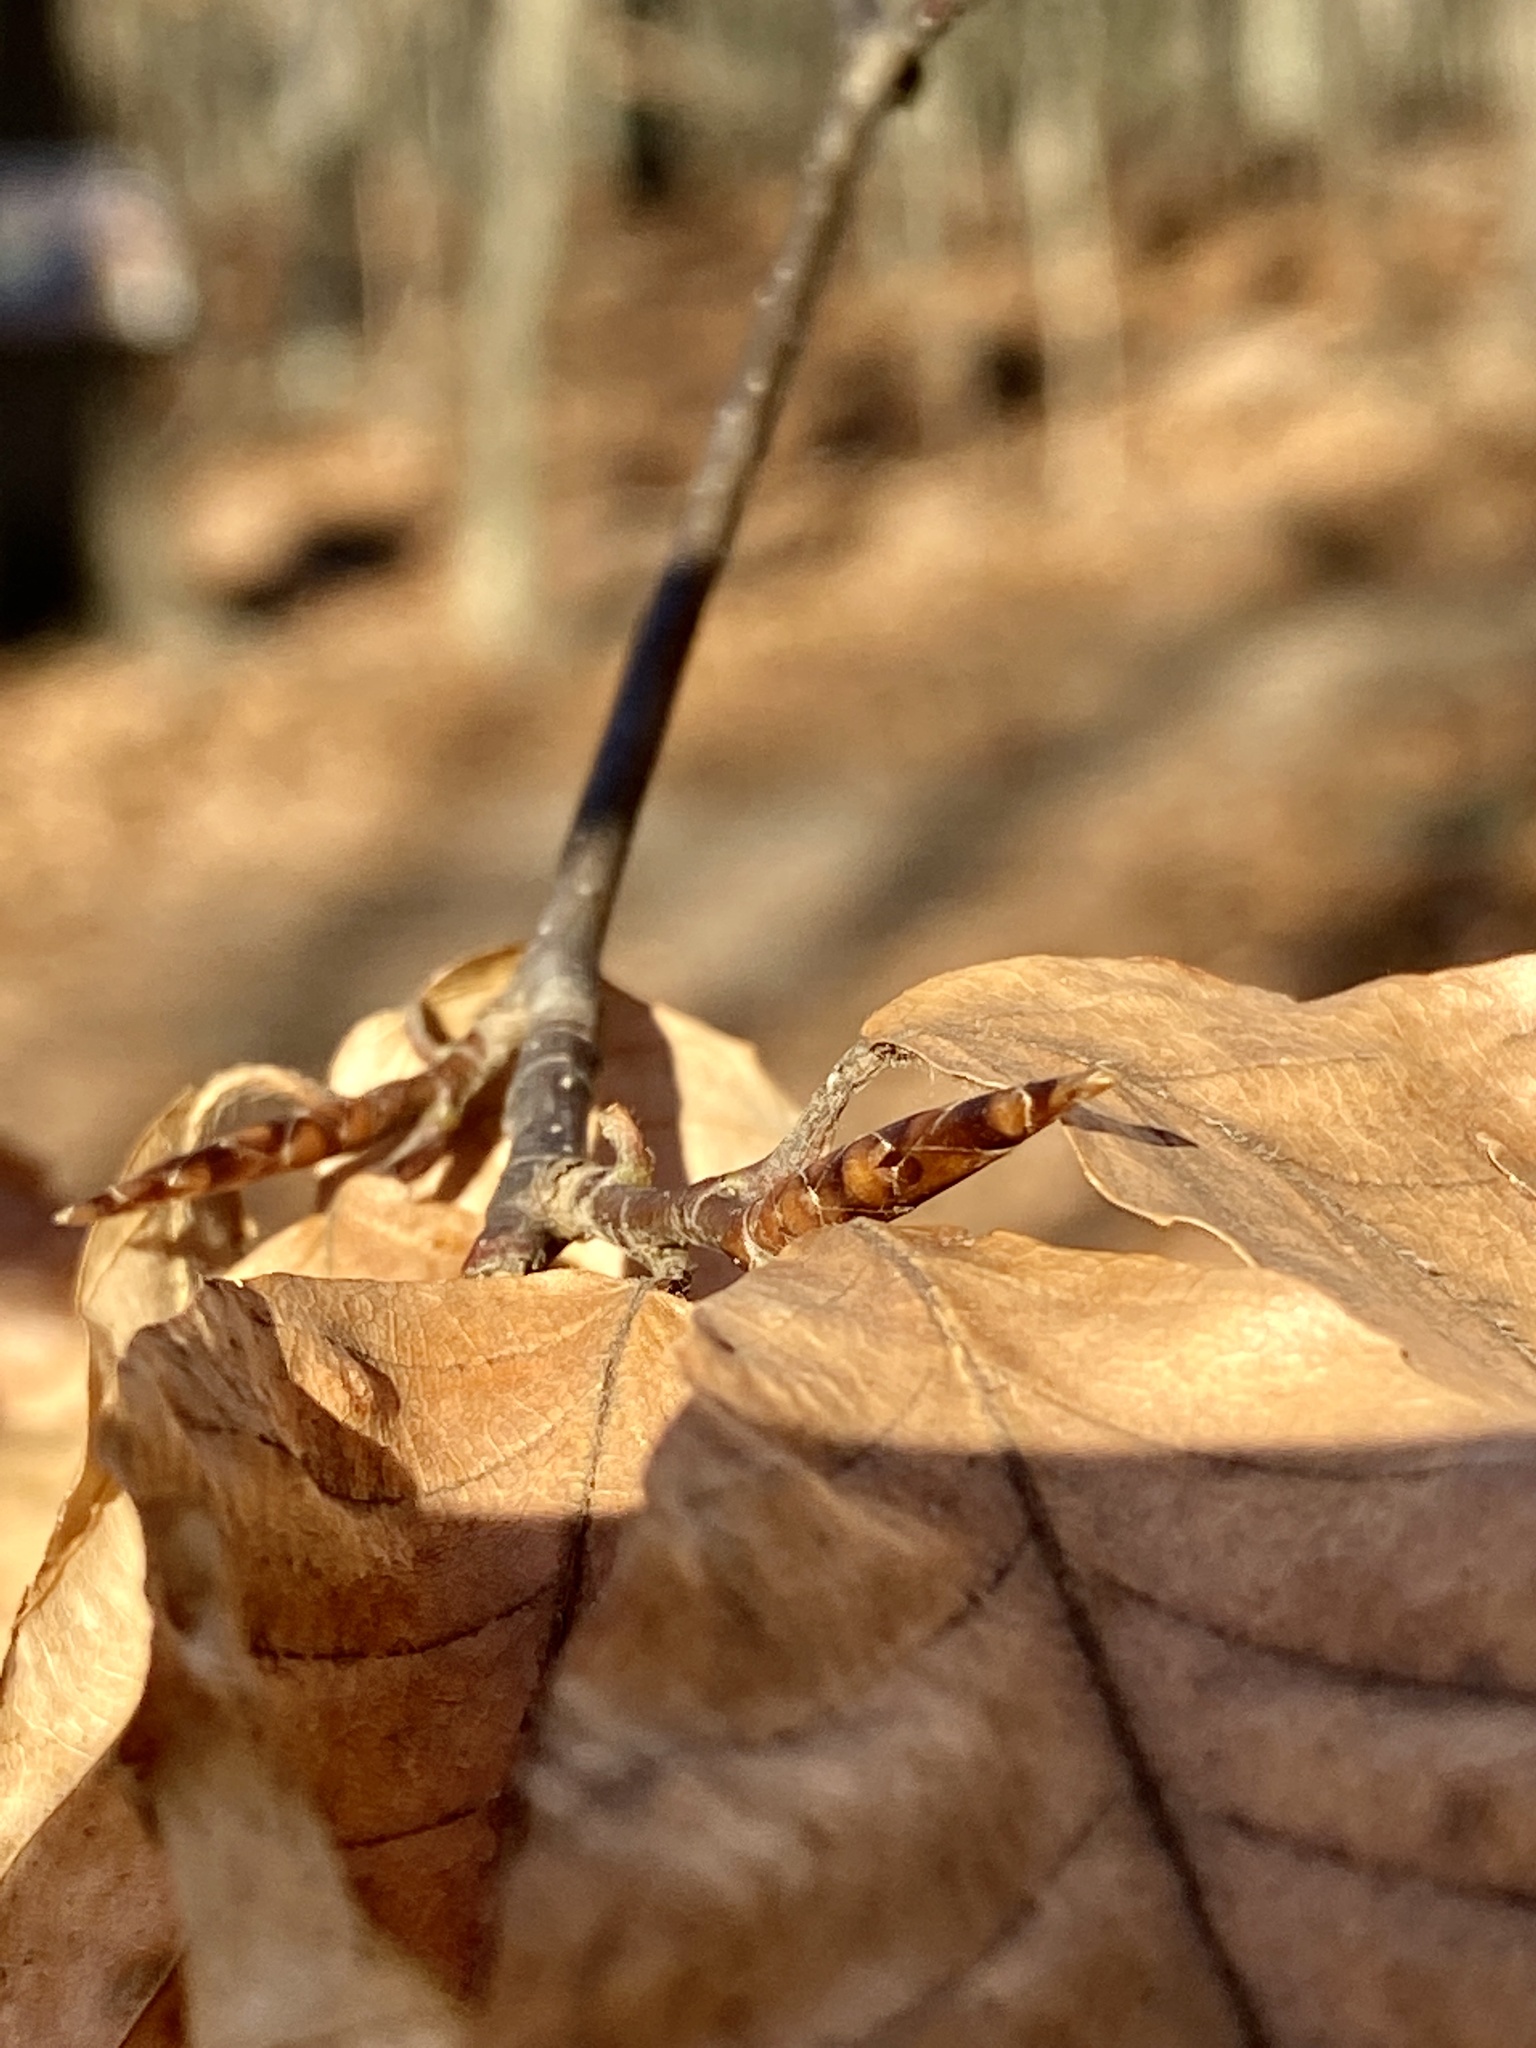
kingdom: Plantae
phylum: Tracheophyta
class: Magnoliopsida
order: Fagales
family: Fagaceae
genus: Fagus
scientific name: Fagus grandifolia
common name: American beech
